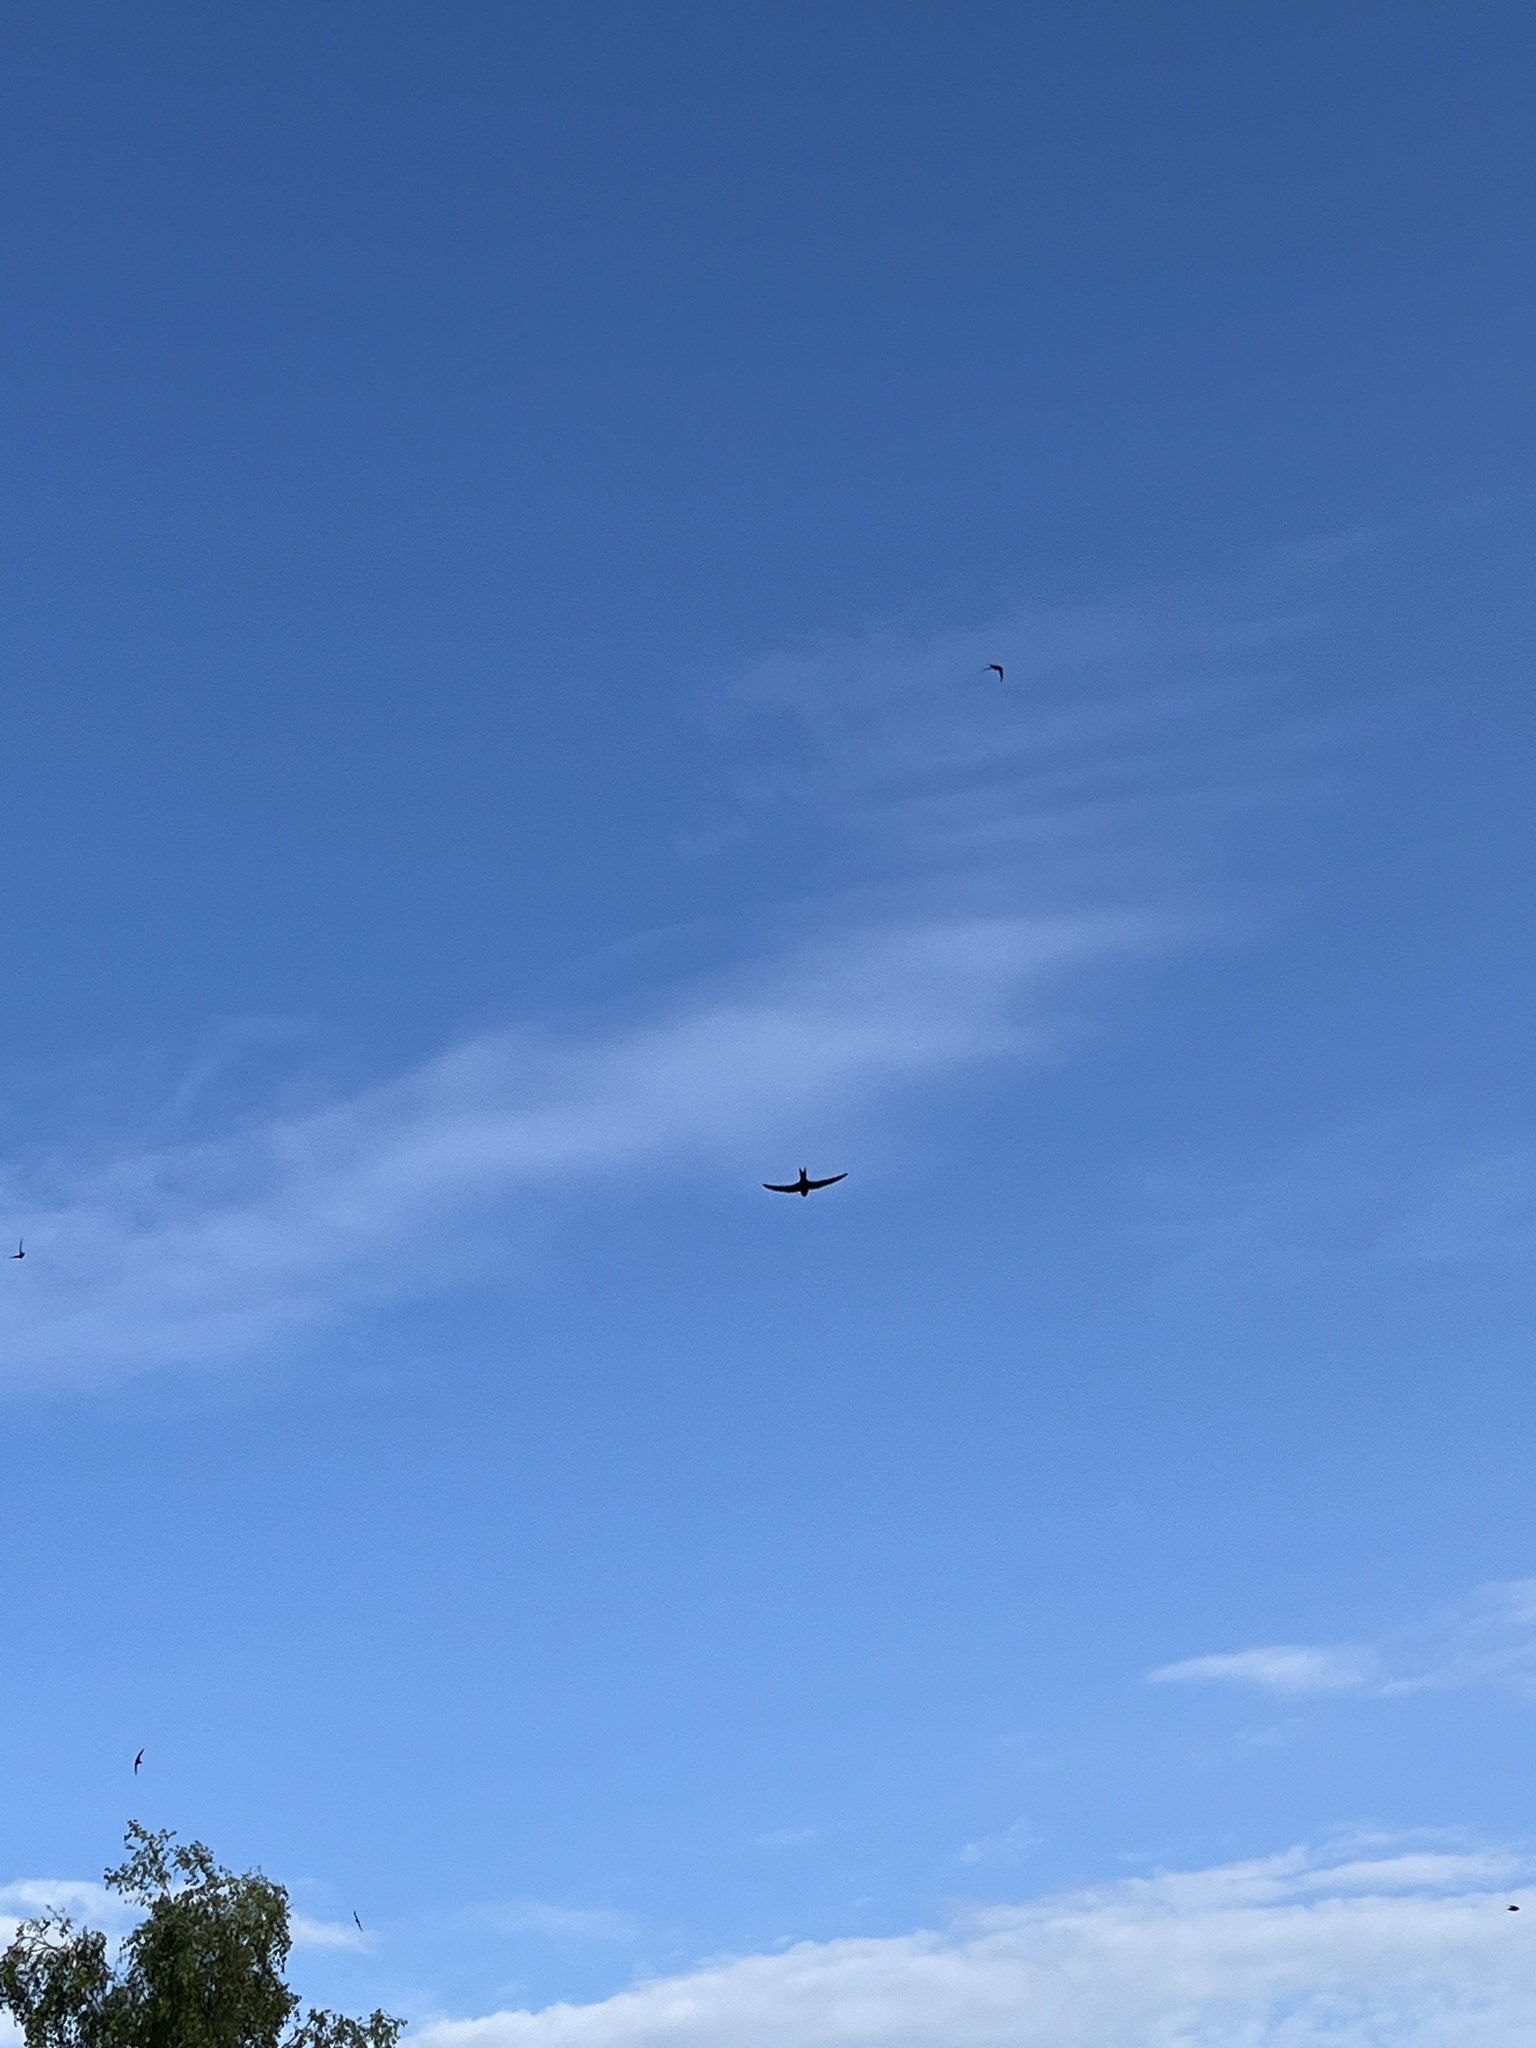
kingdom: Animalia
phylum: Chordata
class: Aves
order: Apodiformes
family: Apodidae
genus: Apus
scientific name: Apus apus
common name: Common swift
